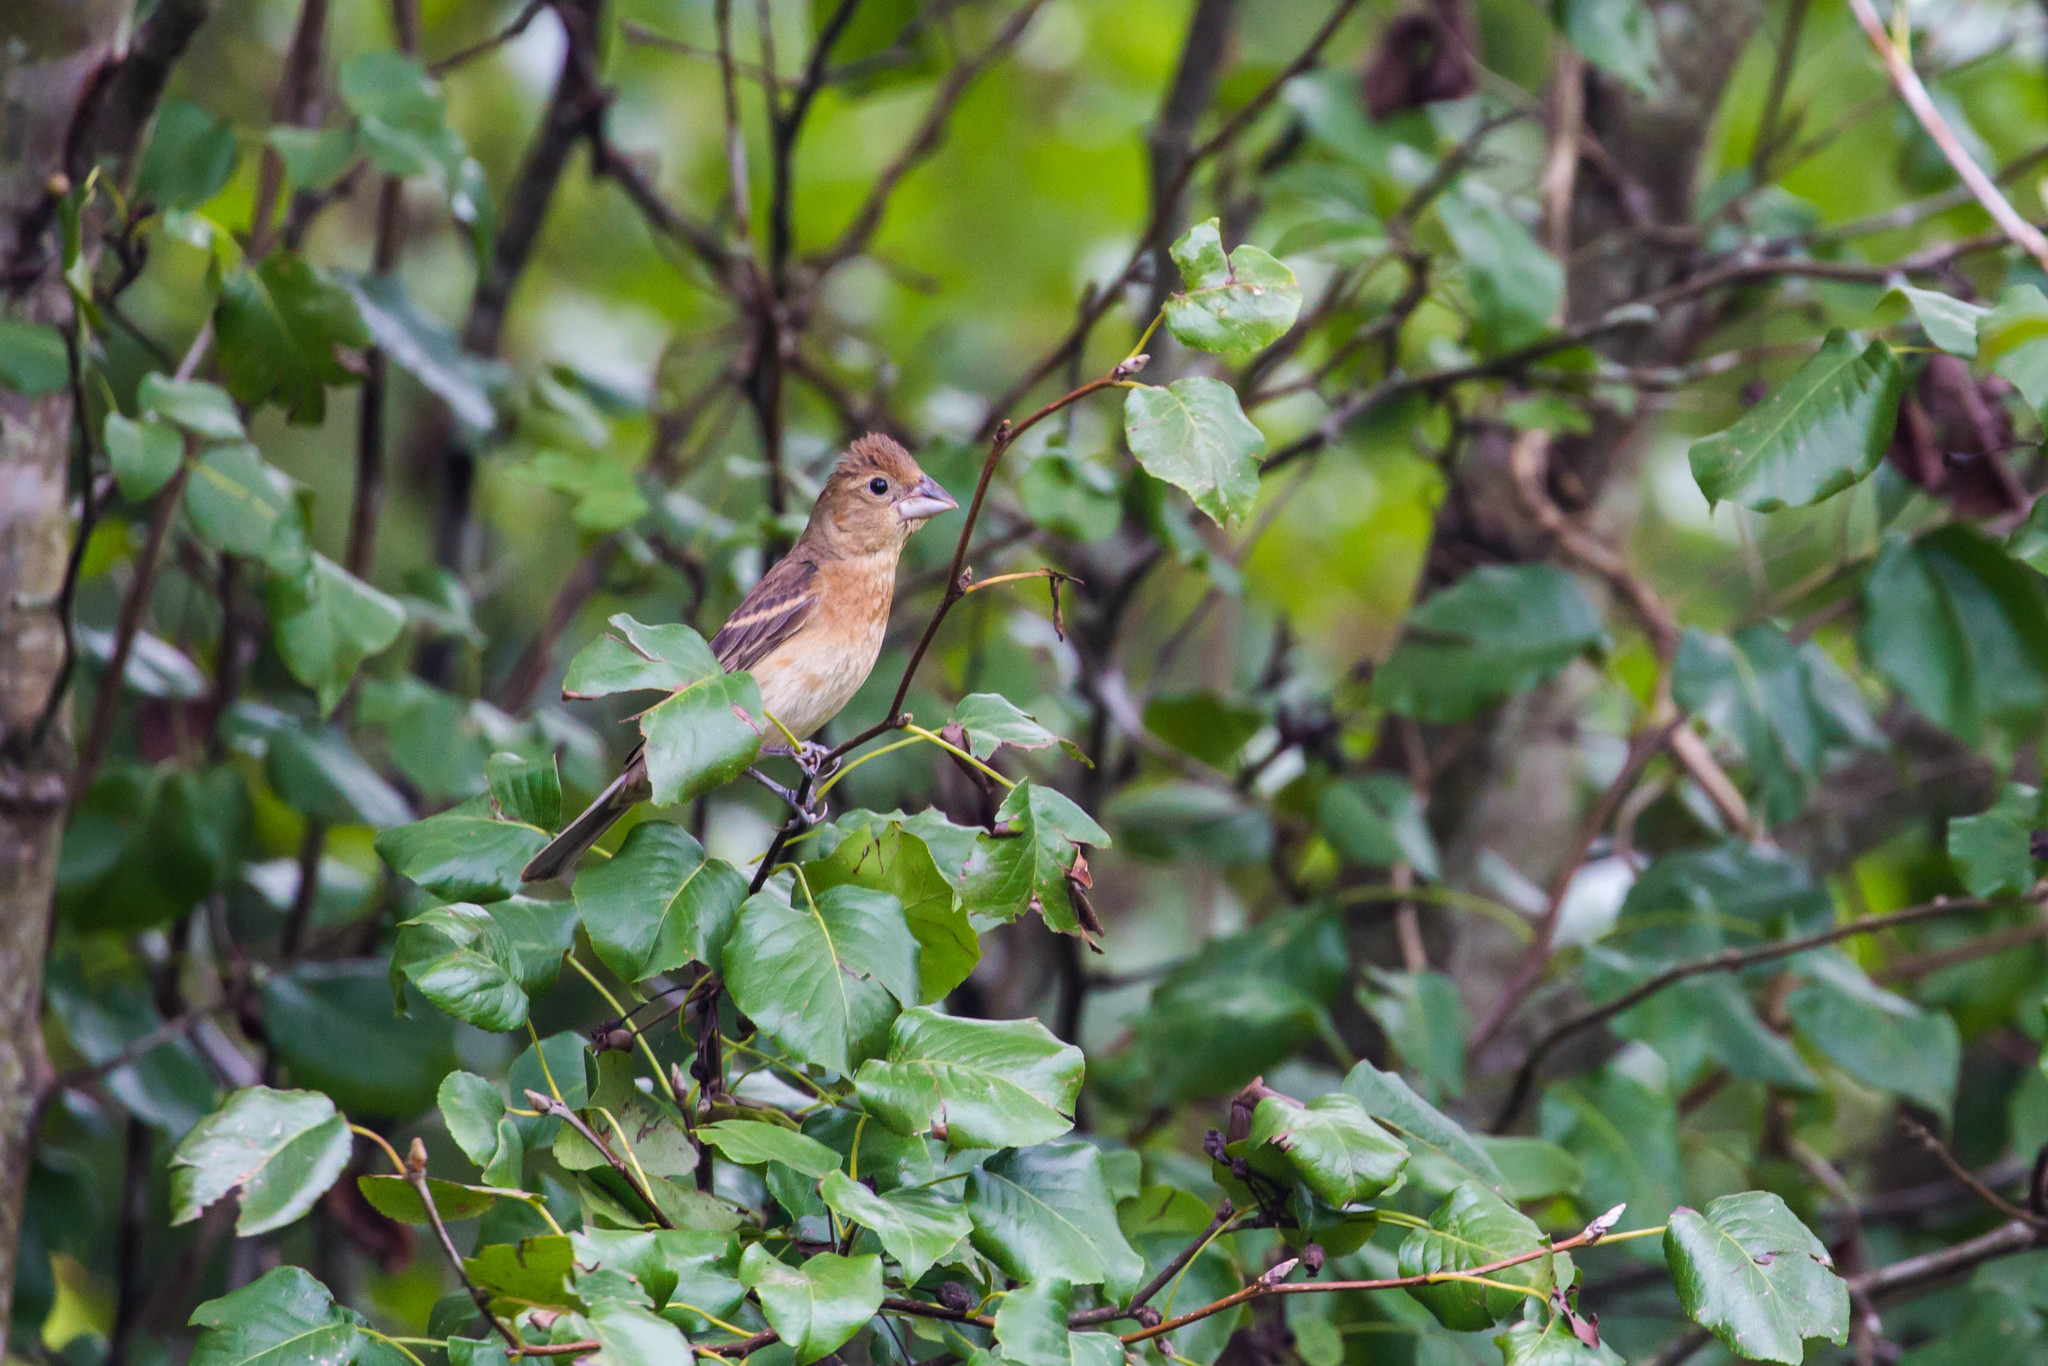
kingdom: Animalia
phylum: Chordata
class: Aves
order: Passeriformes
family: Cardinalidae
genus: Passerina
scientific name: Passerina caerulea
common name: Blue grosbeak
